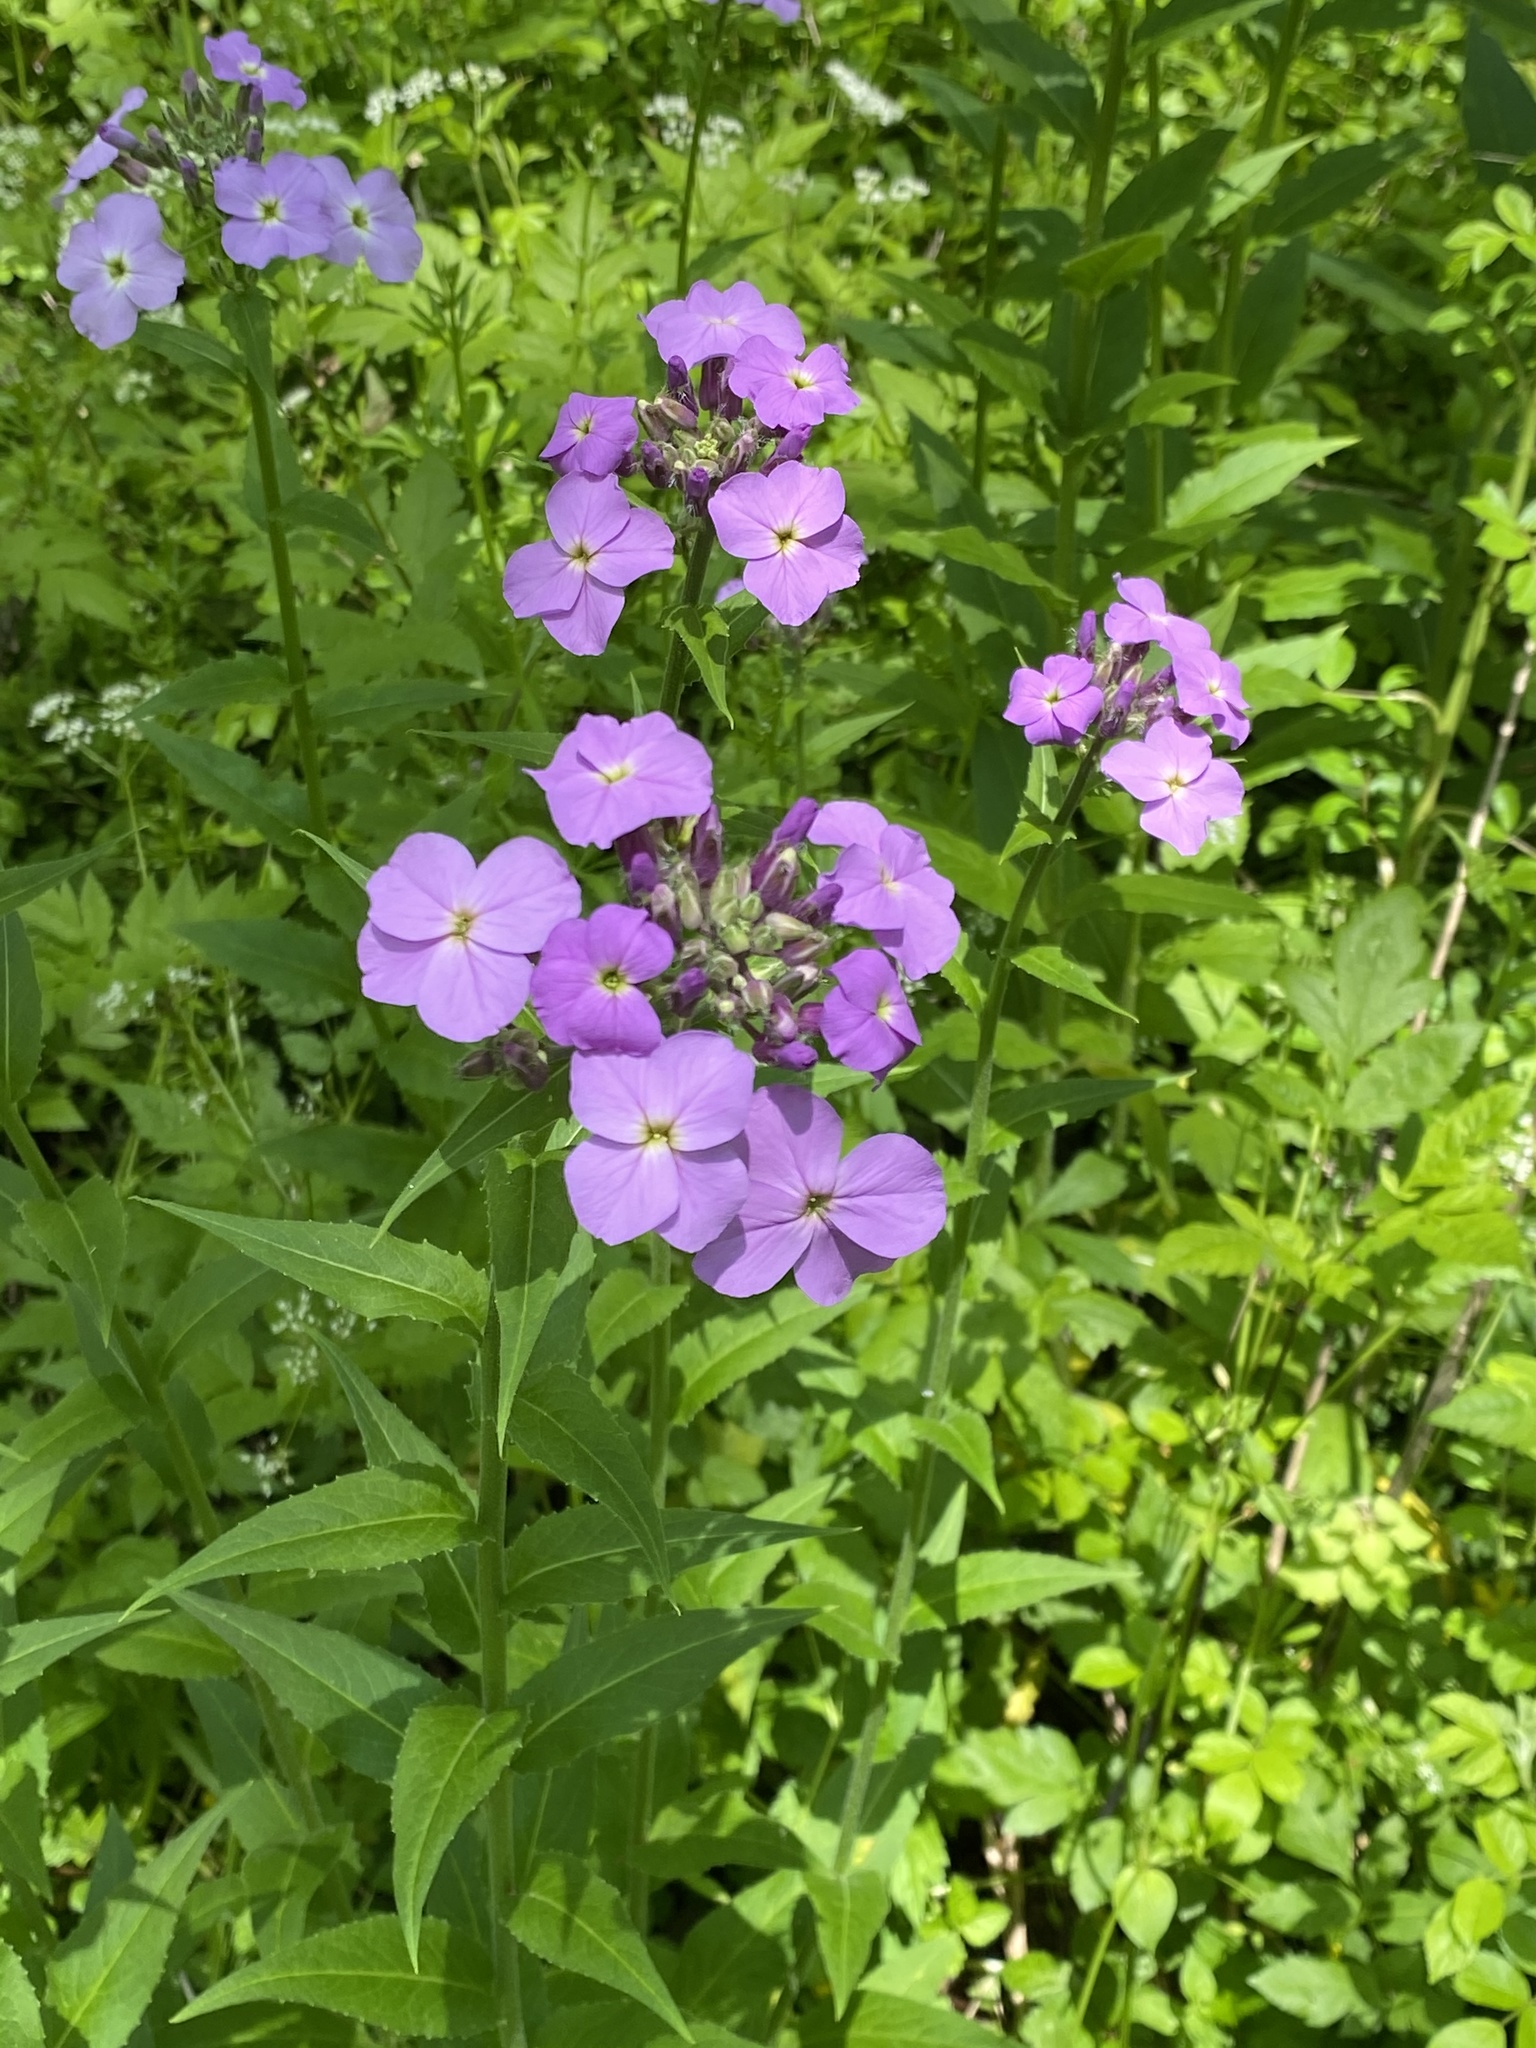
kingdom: Plantae
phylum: Tracheophyta
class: Magnoliopsida
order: Brassicales
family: Brassicaceae
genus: Hesperis
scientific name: Hesperis matronalis
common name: Dame's-violet
